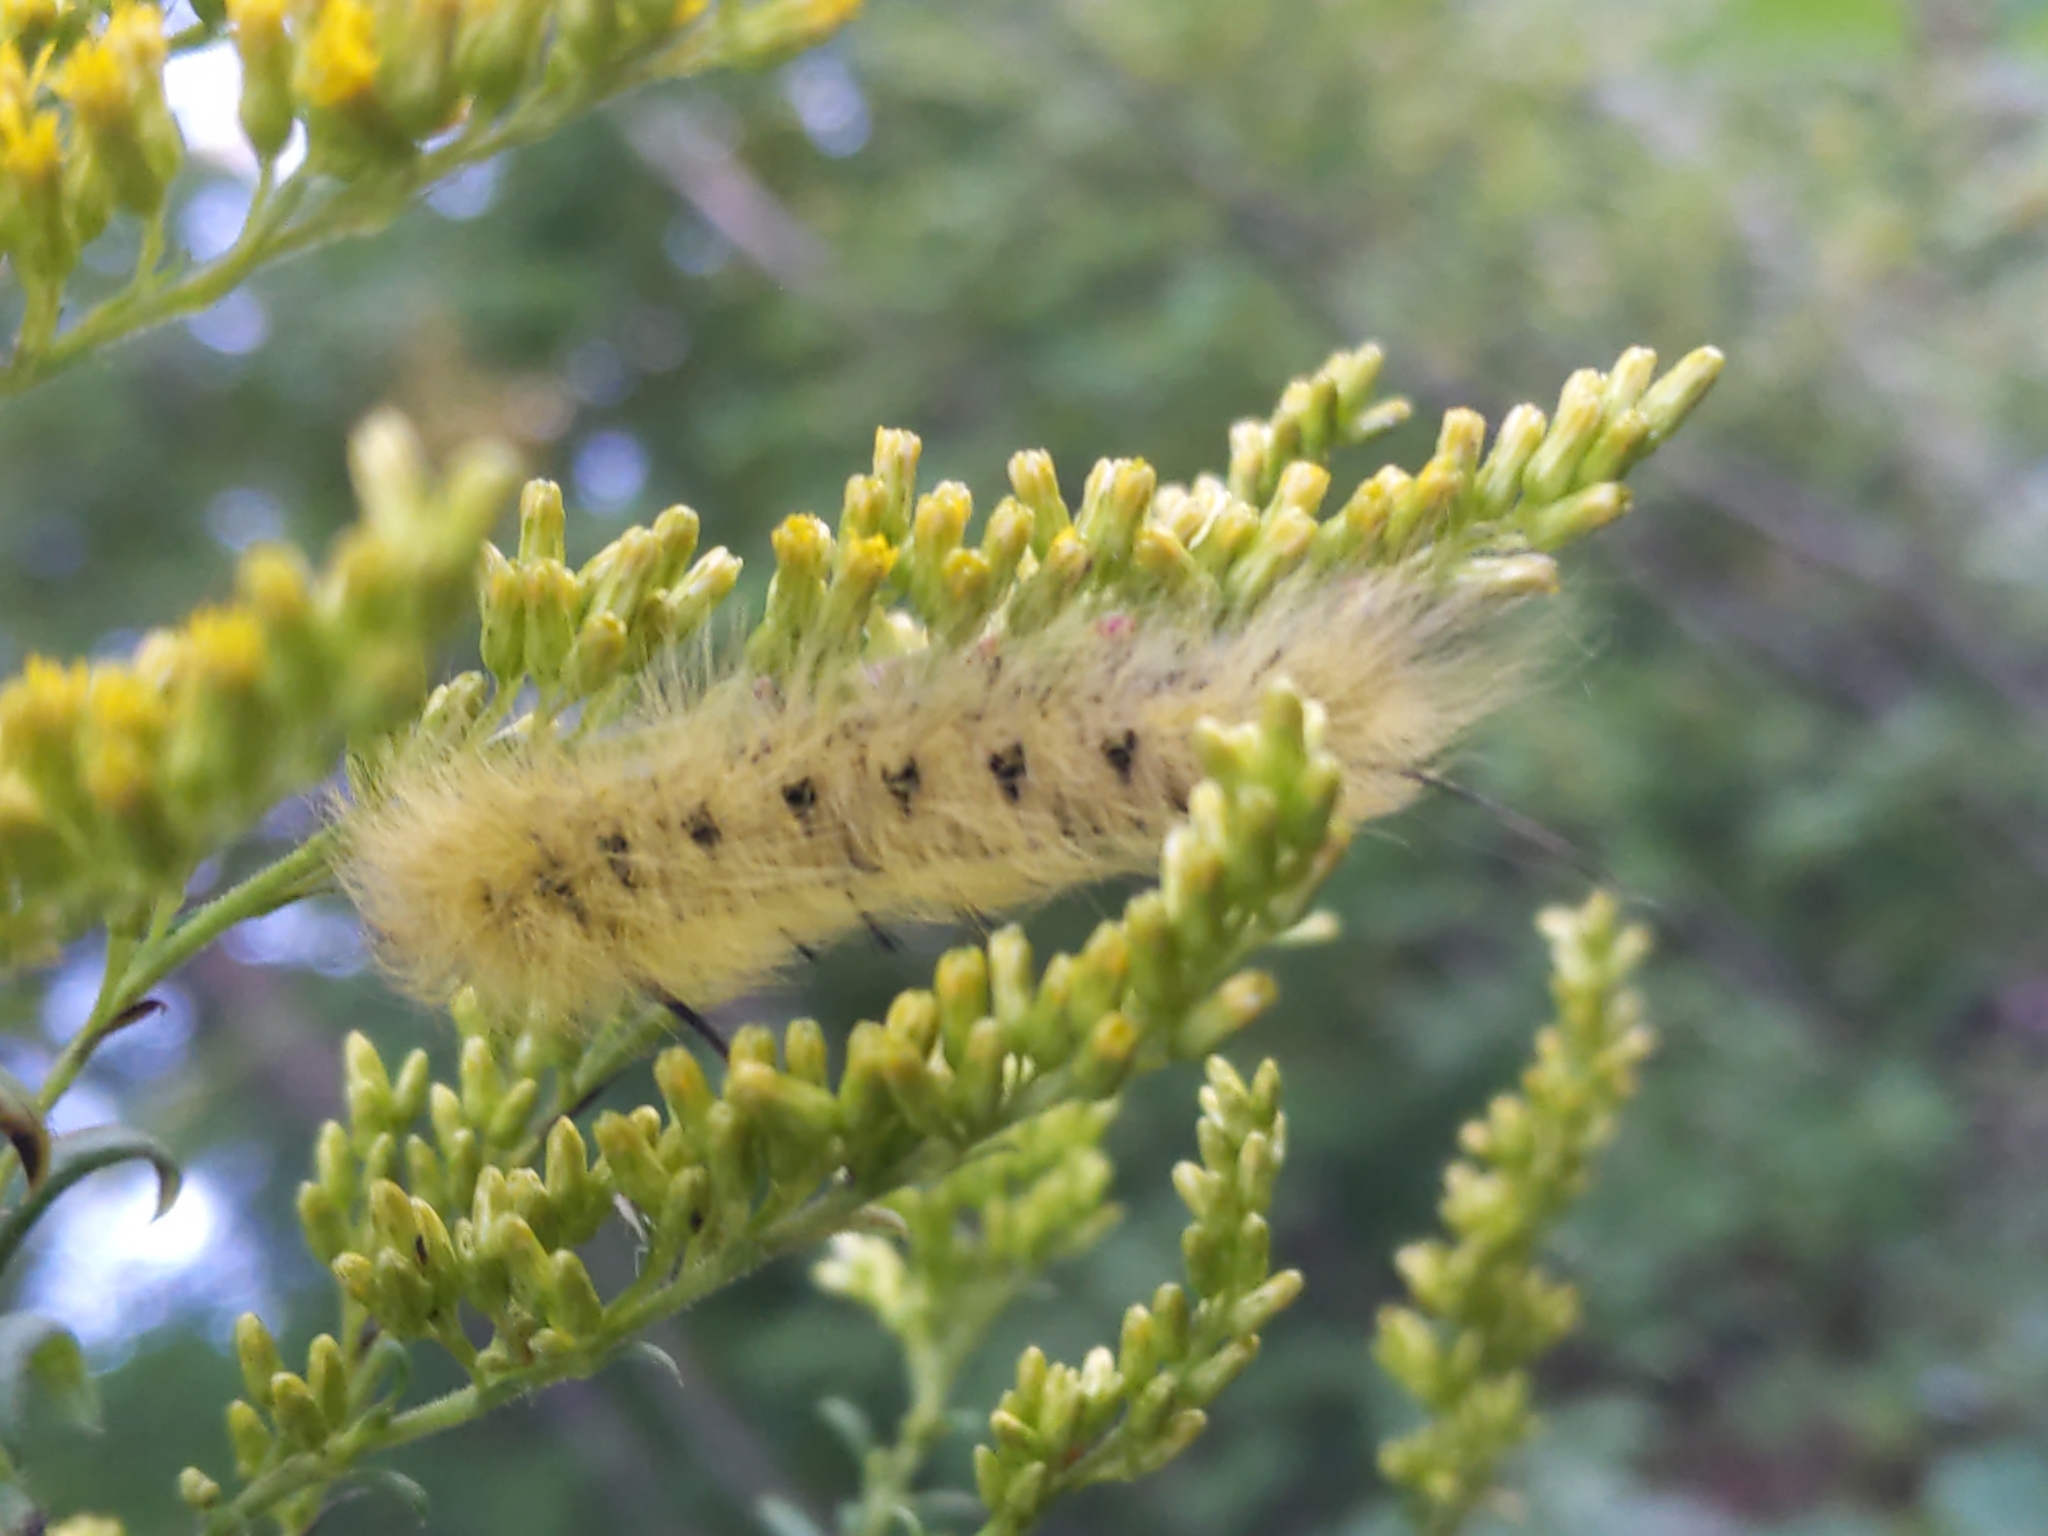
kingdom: Animalia
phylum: Arthropoda
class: Insecta
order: Lepidoptera
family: Apatelodidae
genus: Hygrochroa
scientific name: Hygrochroa Apatelodes torrefacta
